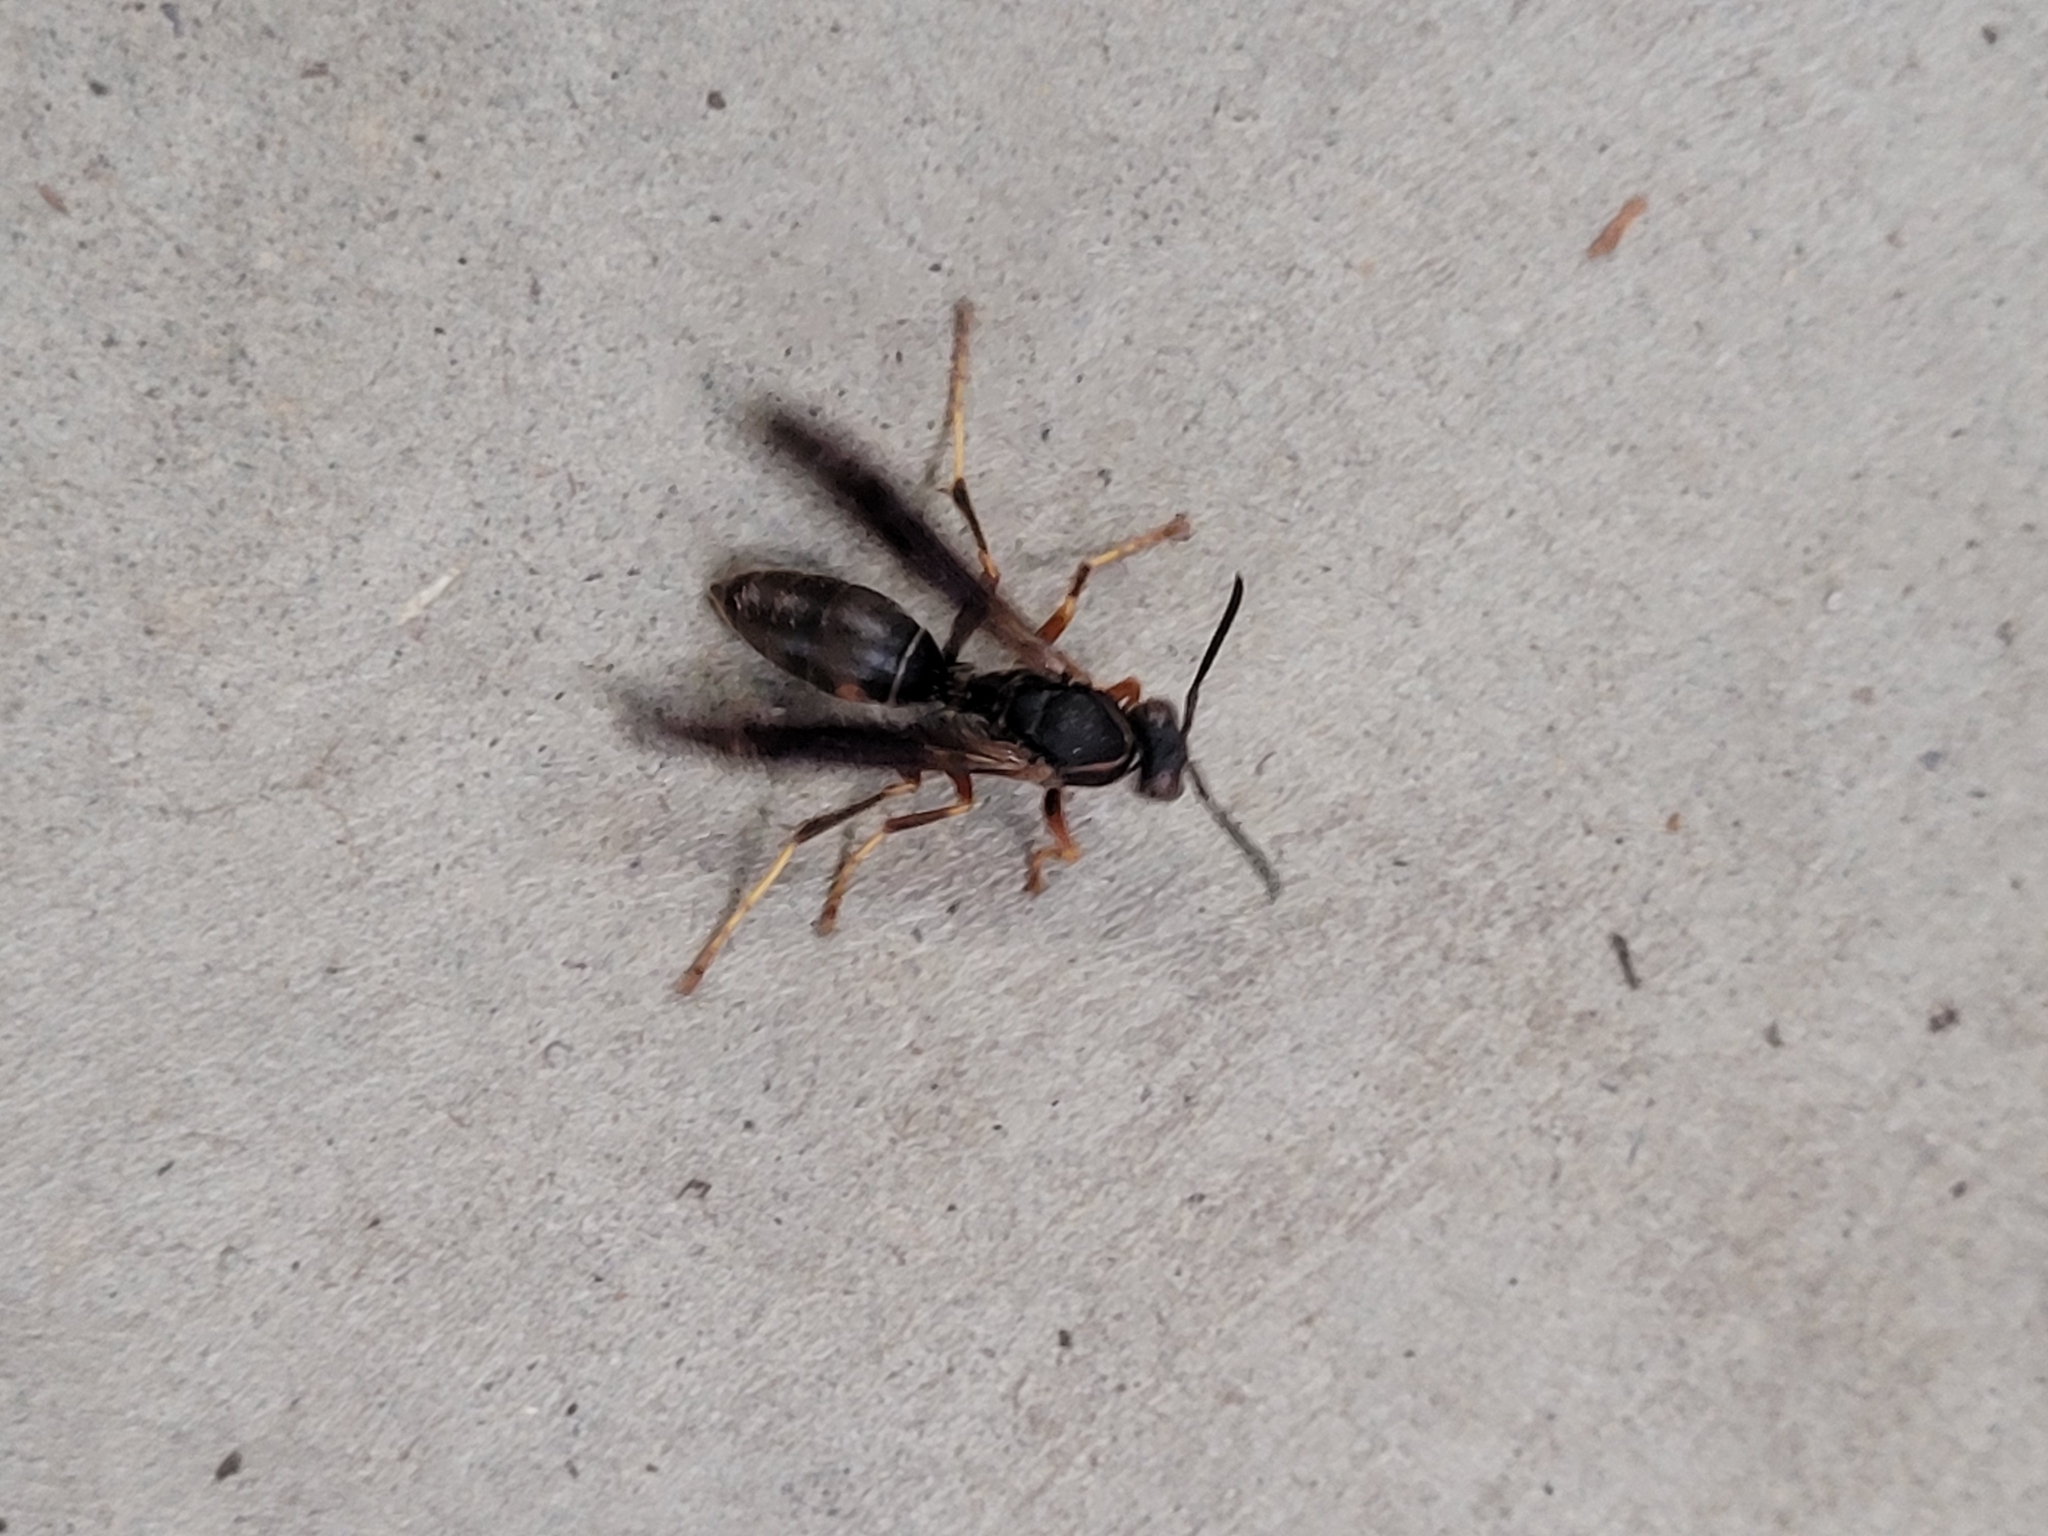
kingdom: Animalia
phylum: Arthropoda
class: Insecta
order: Hymenoptera
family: Eumenidae
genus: Polistes
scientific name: Polistes fuscatus
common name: Dark paper wasp
